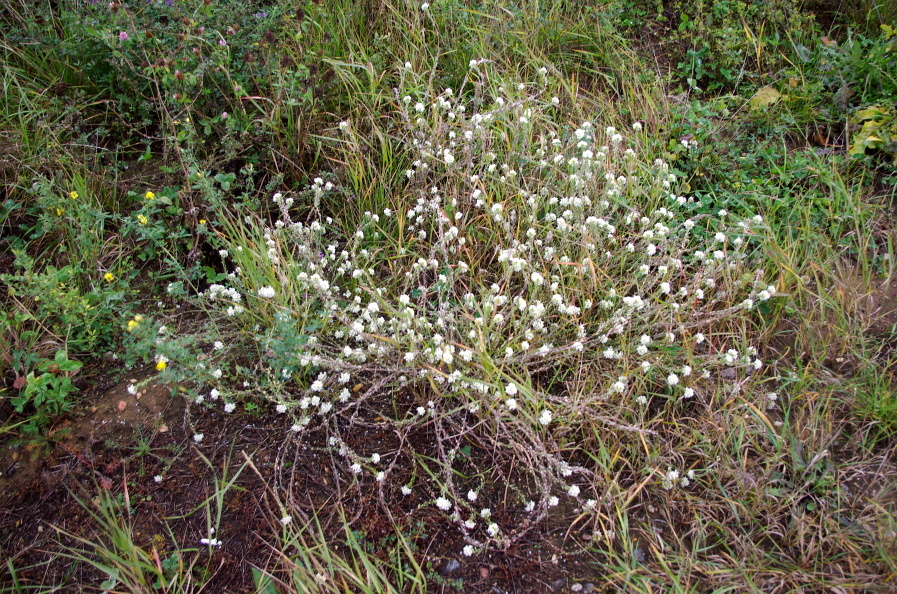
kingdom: Plantae
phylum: Tracheophyta
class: Magnoliopsida
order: Brassicales
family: Brassicaceae
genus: Berteroa
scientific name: Berteroa incana
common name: Hoary alison
